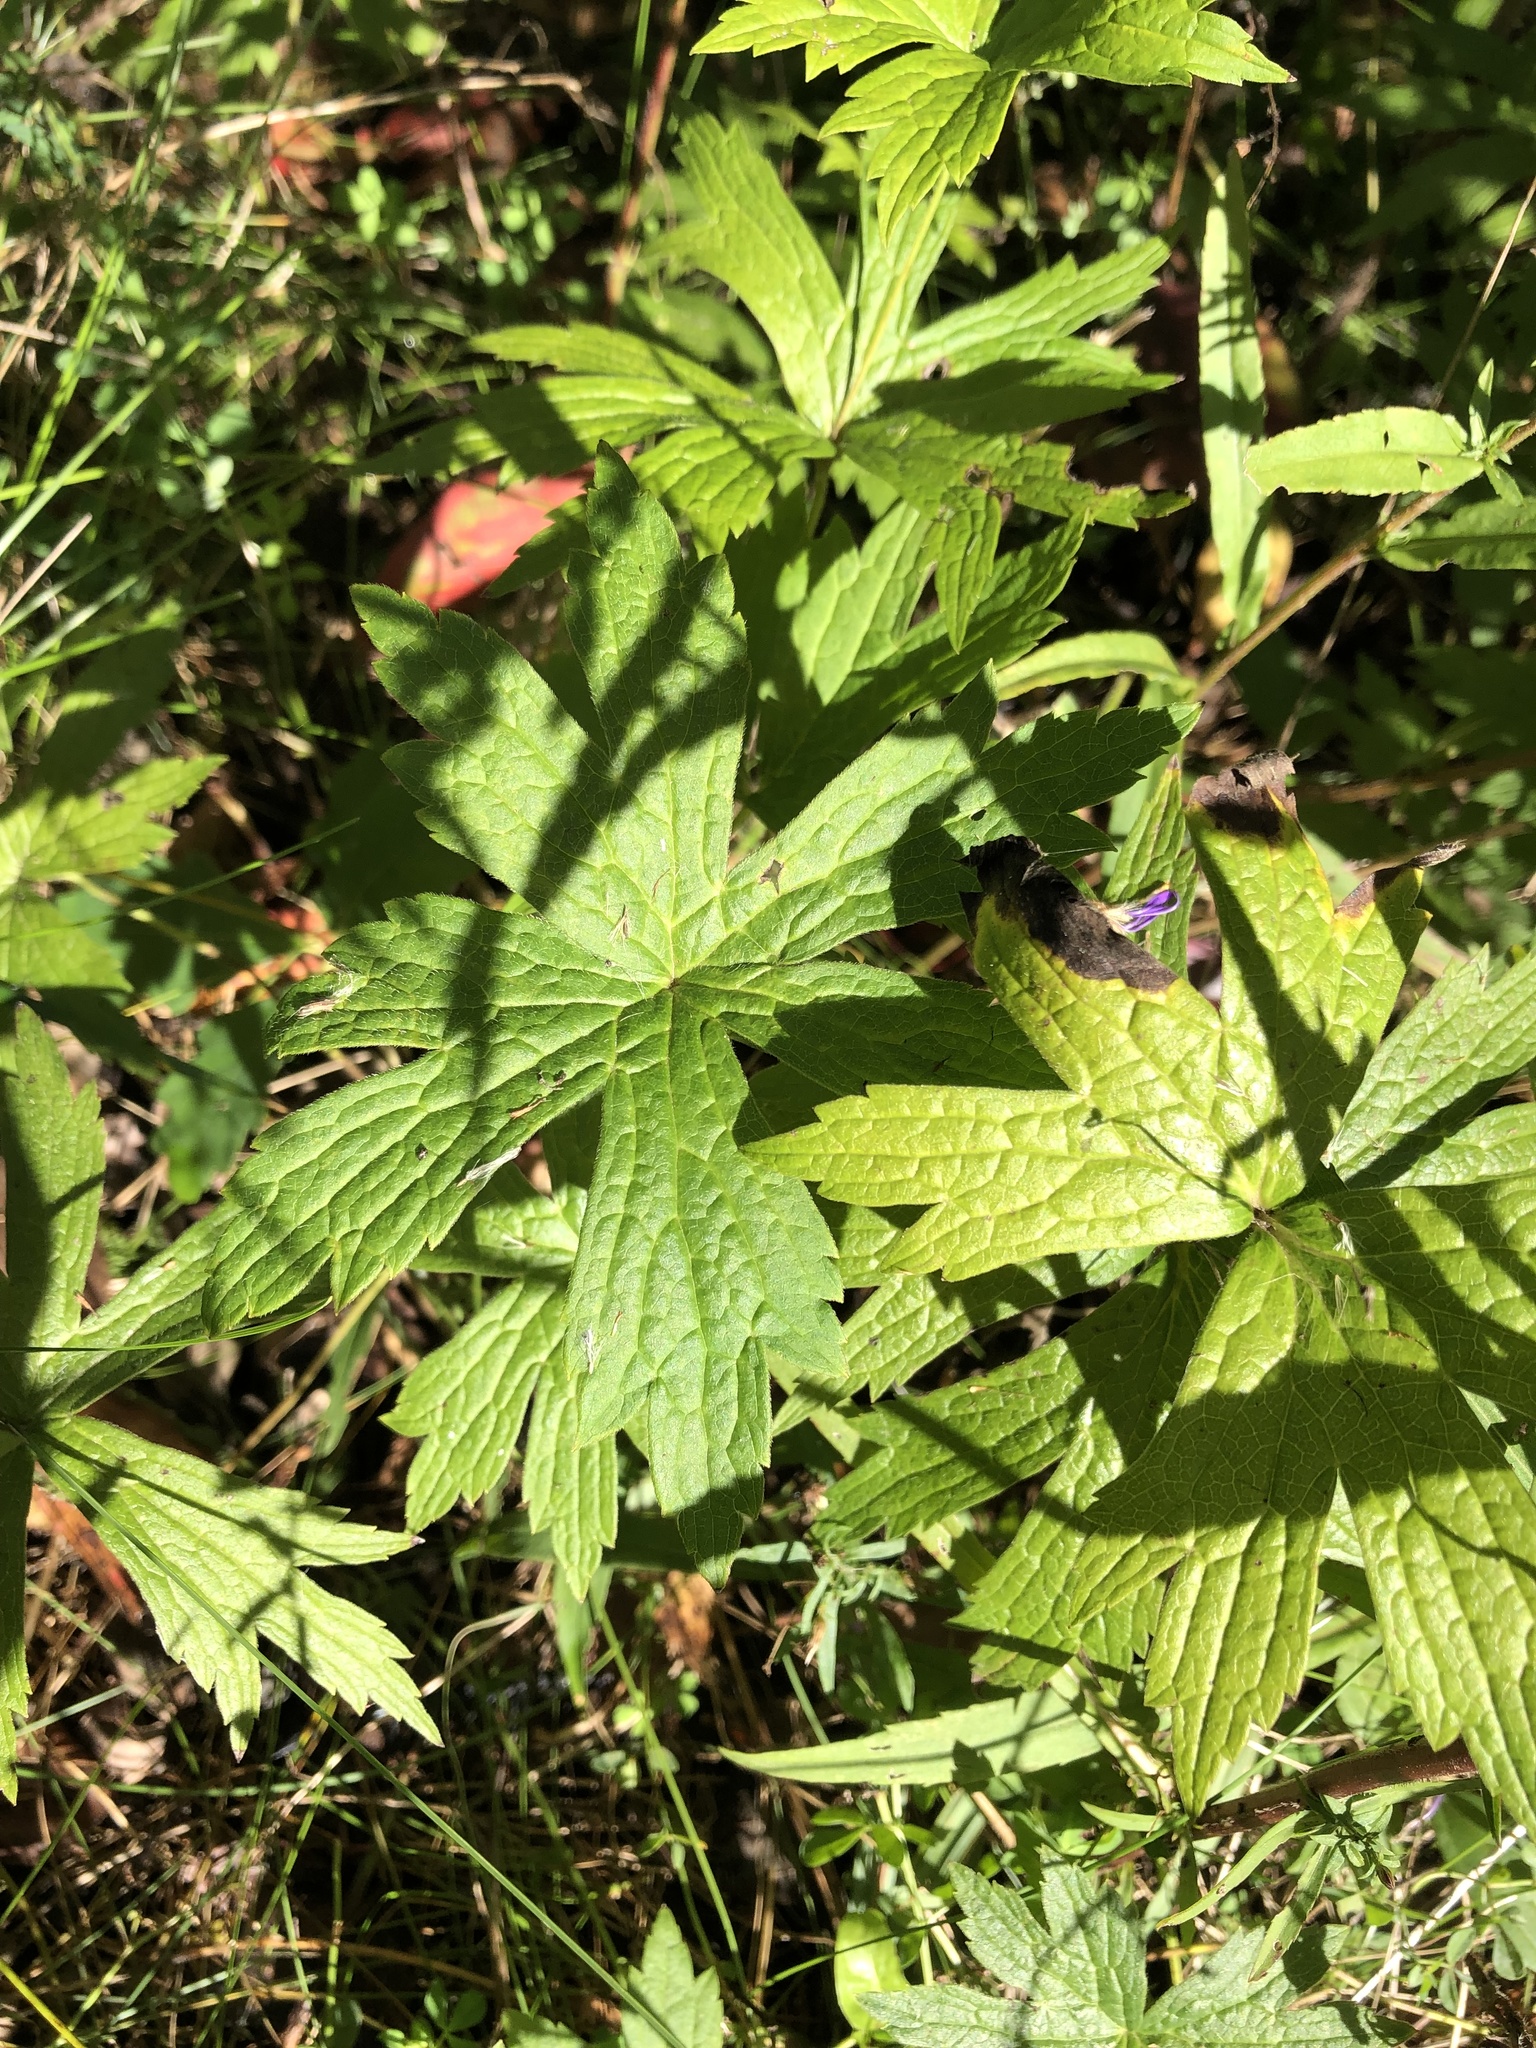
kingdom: Plantae
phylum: Tracheophyta
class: Magnoliopsida
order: Ranunculales
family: Ranunculaceae
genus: Anemonastrum
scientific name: Anemonastrum canadense
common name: Canada anemone
